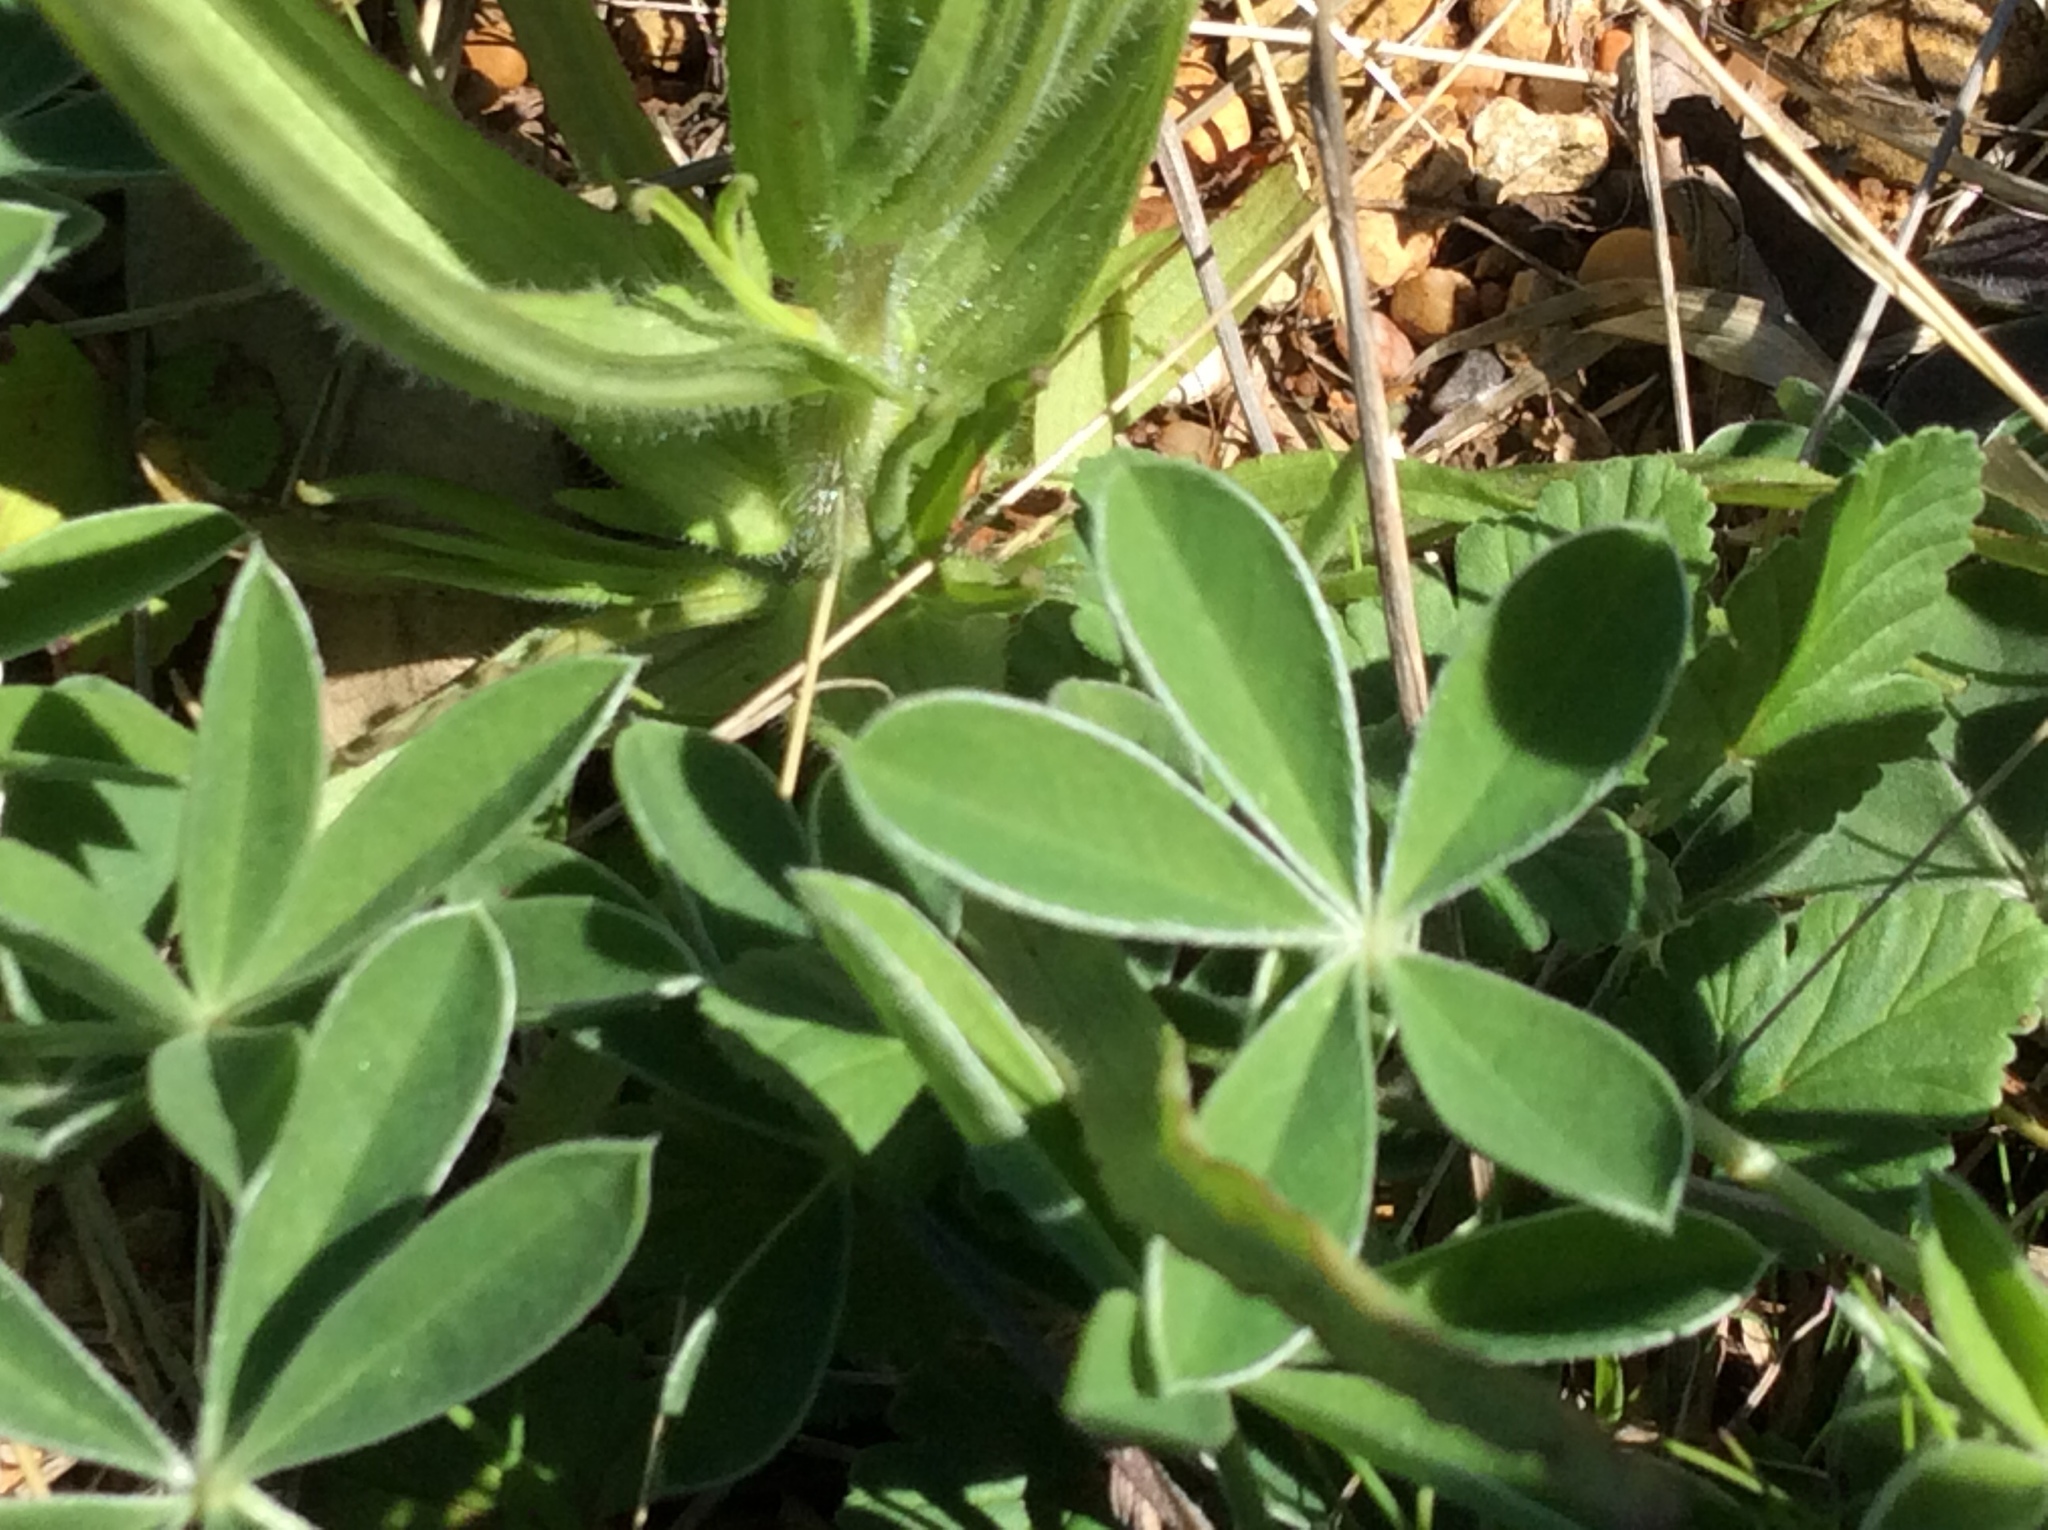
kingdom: Plantae
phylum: Tracheophyta
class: Magnoliopsida
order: Fabales
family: Fabaceae
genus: Lupinus
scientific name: Lupinus texensis
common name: Texas bluebonnet
